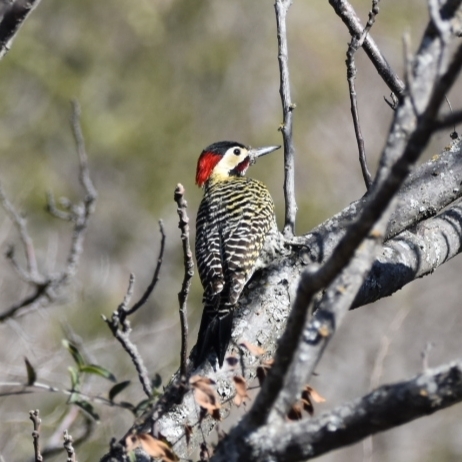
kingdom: Animalia
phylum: Chordata
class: Aves
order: Piciformes
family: Picidae
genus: Colaptes
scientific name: Colaptes melanochloros
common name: Green-barred woodpecker
